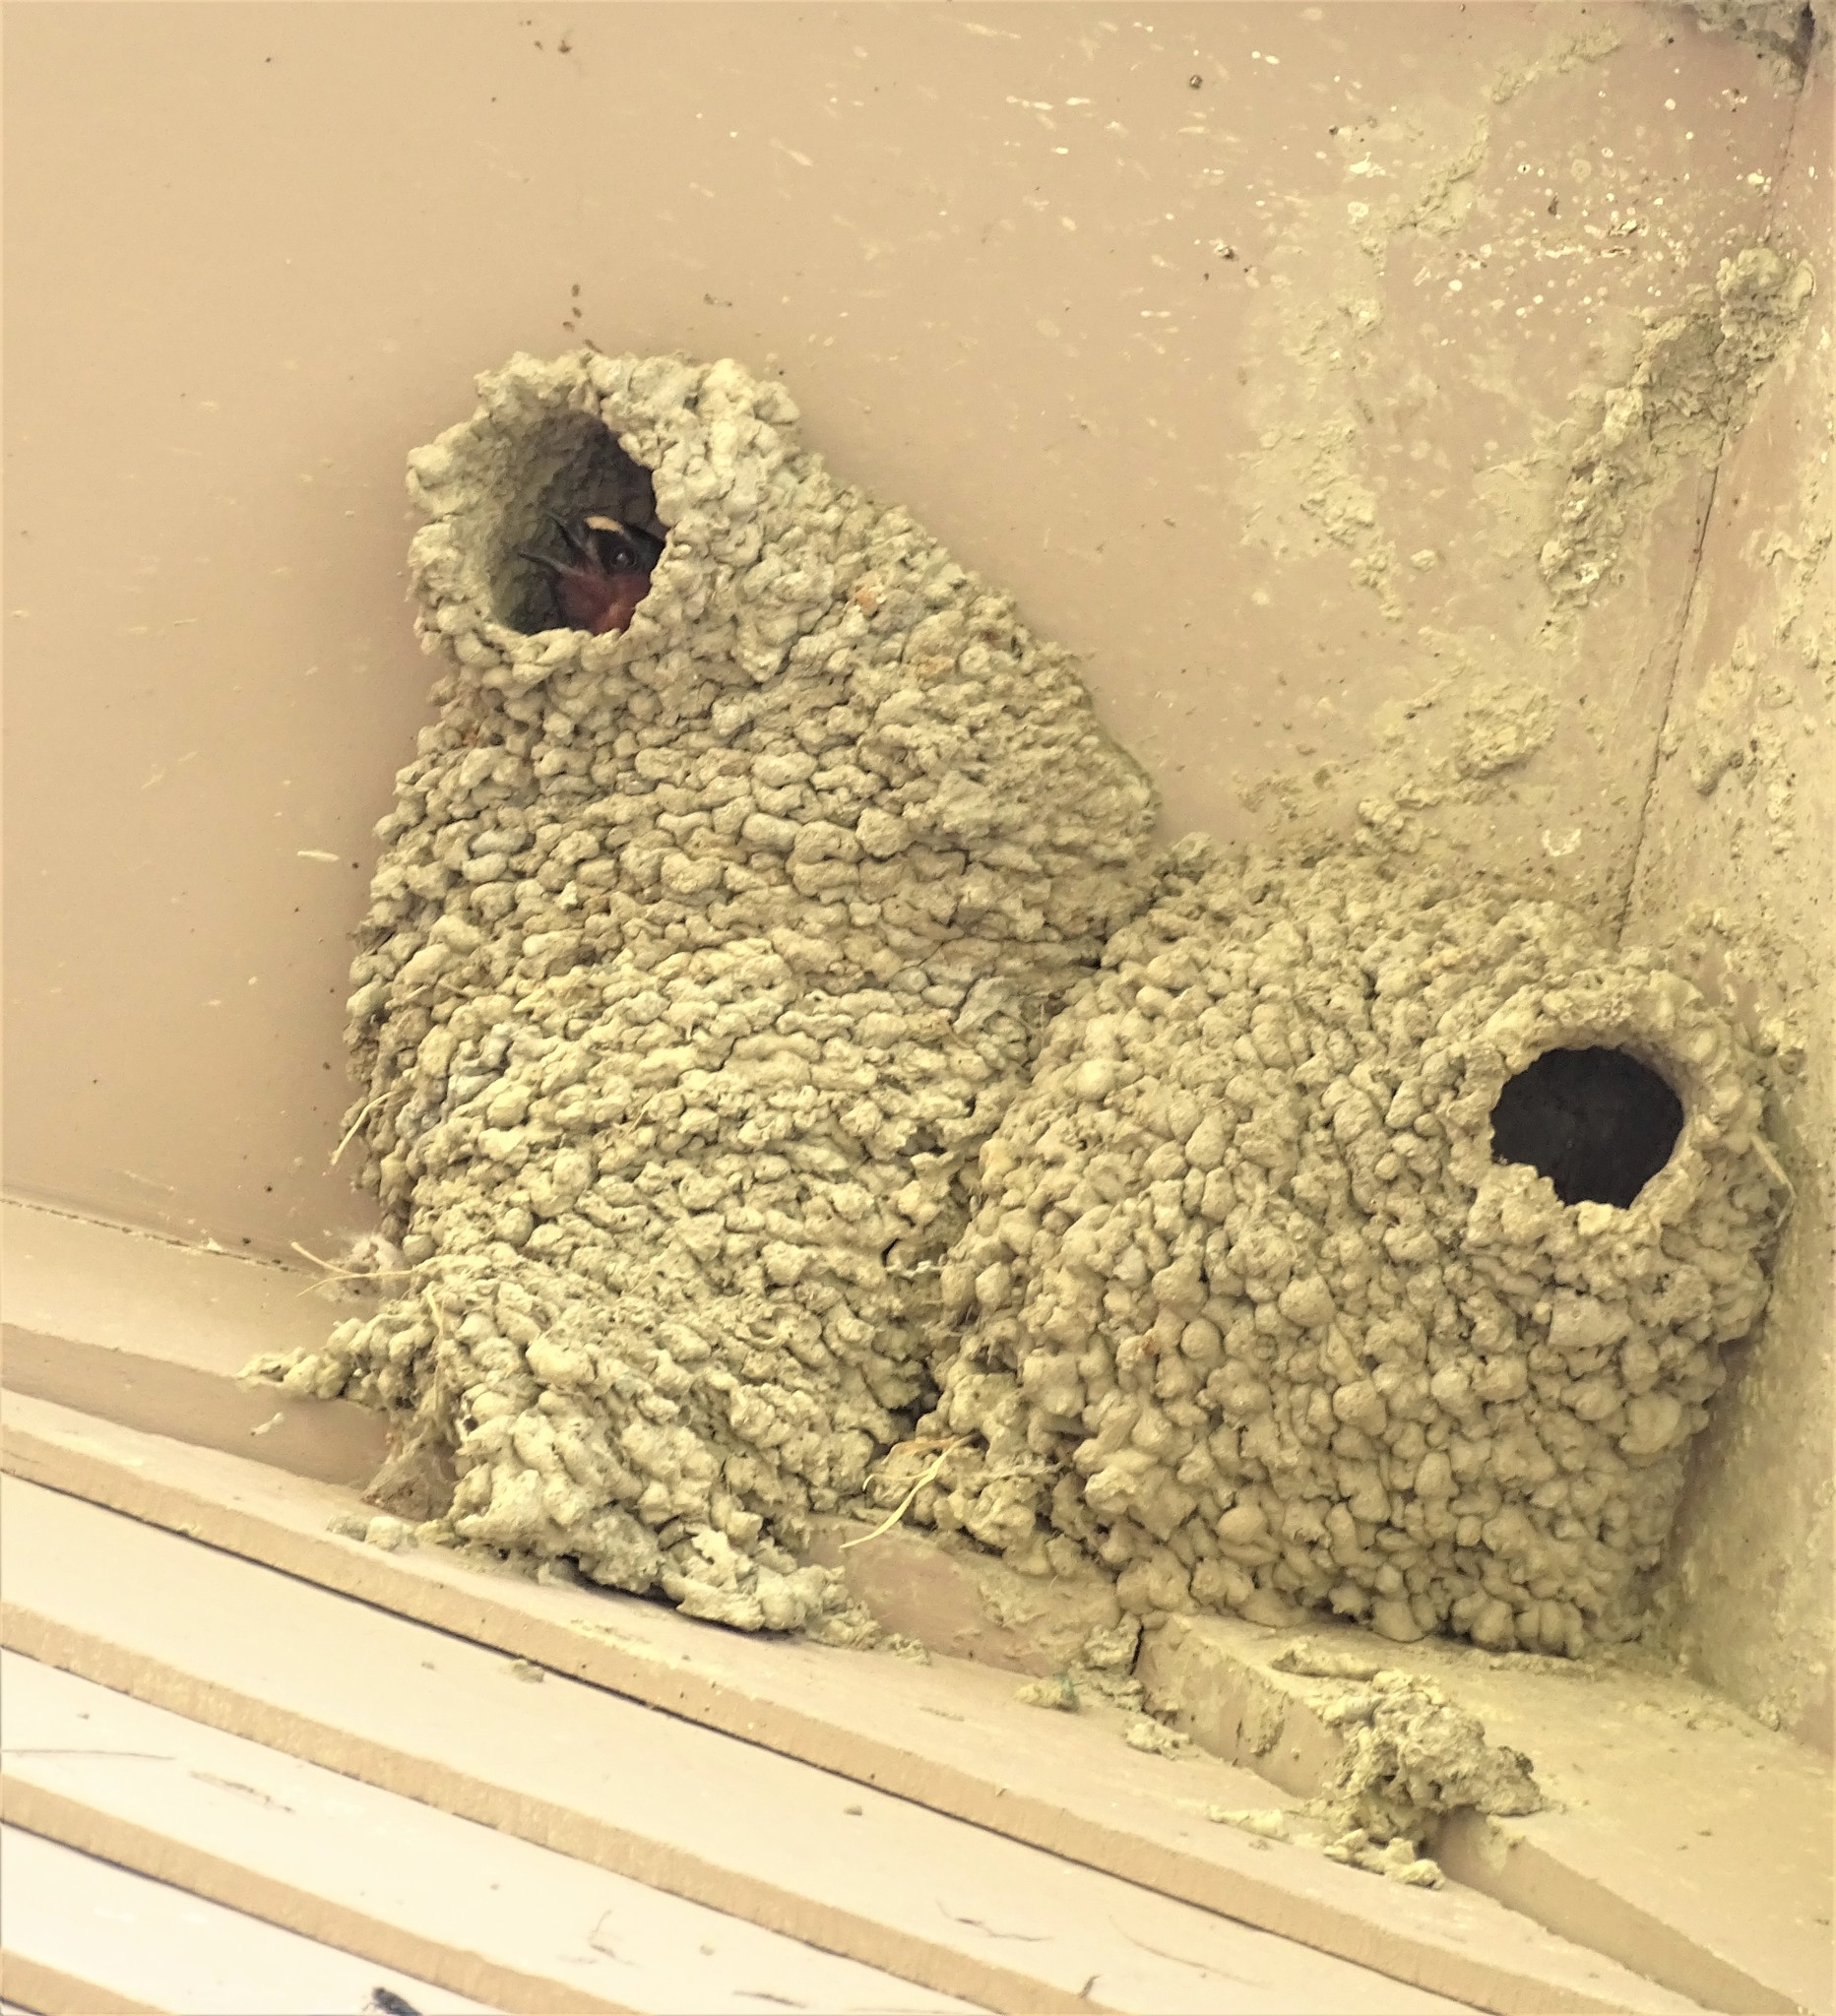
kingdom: Animalia
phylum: Chordata
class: Aves
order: Passeriformes
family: Hirundinidae
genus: Petrochelidon
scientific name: Petrochelidon pyrrhonota
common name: American cliff swallow
